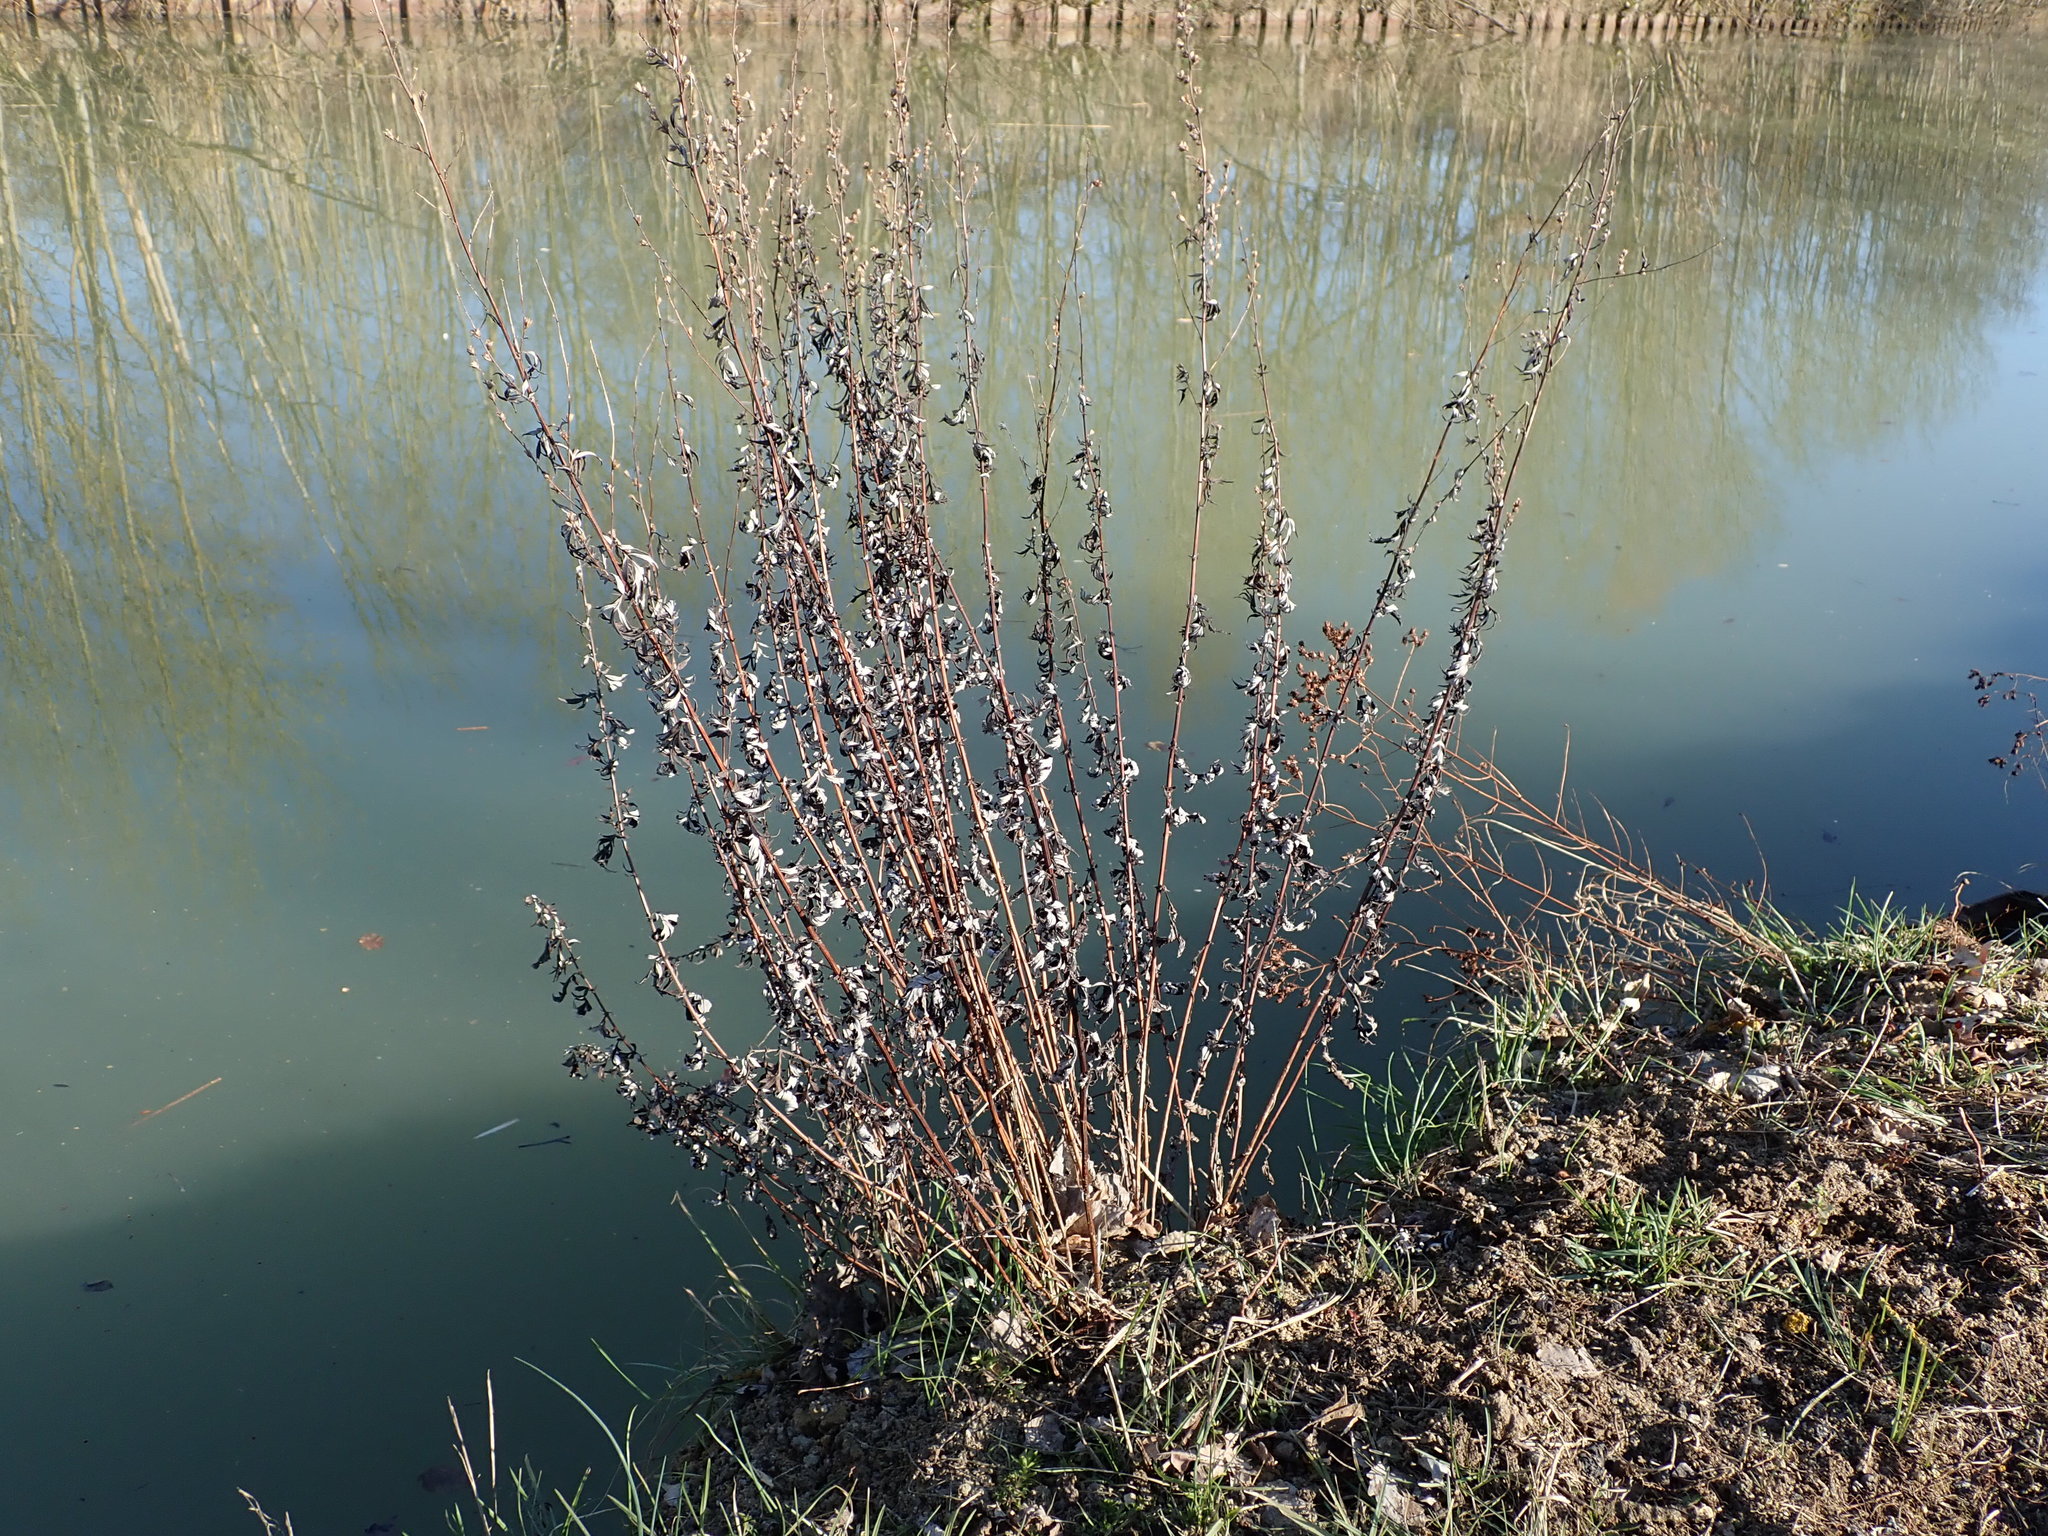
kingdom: Plantae
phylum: Tracheophyta
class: Magnoliopsida
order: Asterales
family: Asteraceae
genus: Artemisia
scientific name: Artemisia vulgaris
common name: Mugwort
